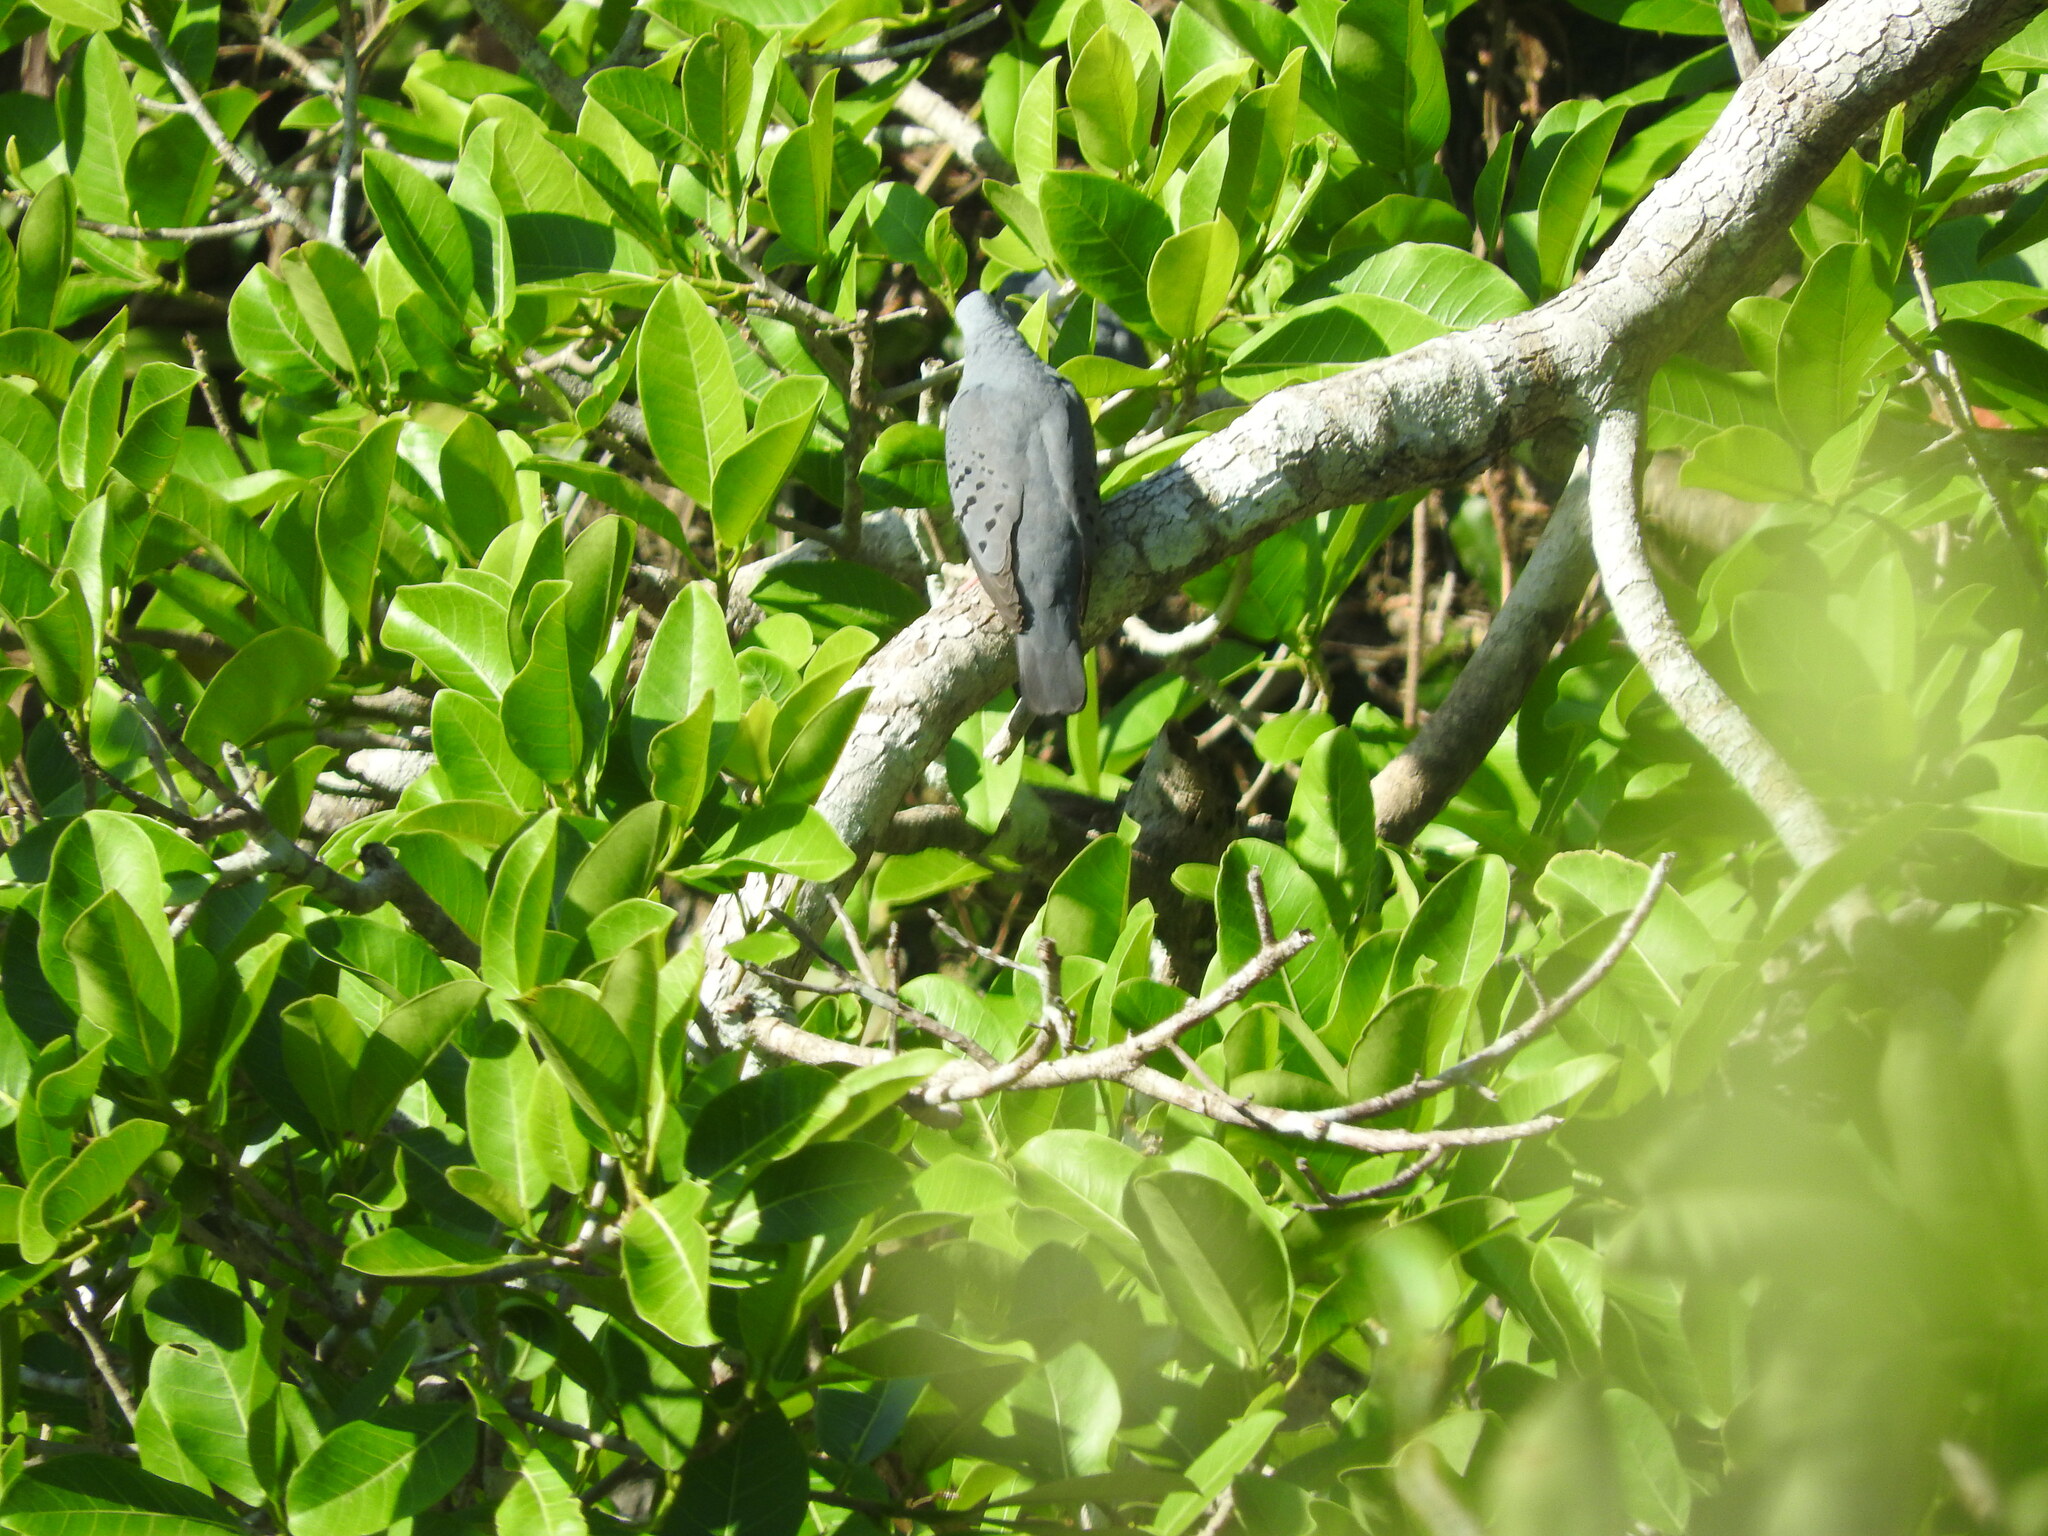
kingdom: Animalia
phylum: Chordata
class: Aves
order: Columbiformes
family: Columbidae
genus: Claravis
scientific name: Claravis pretiosa
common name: Blue ground-dove
